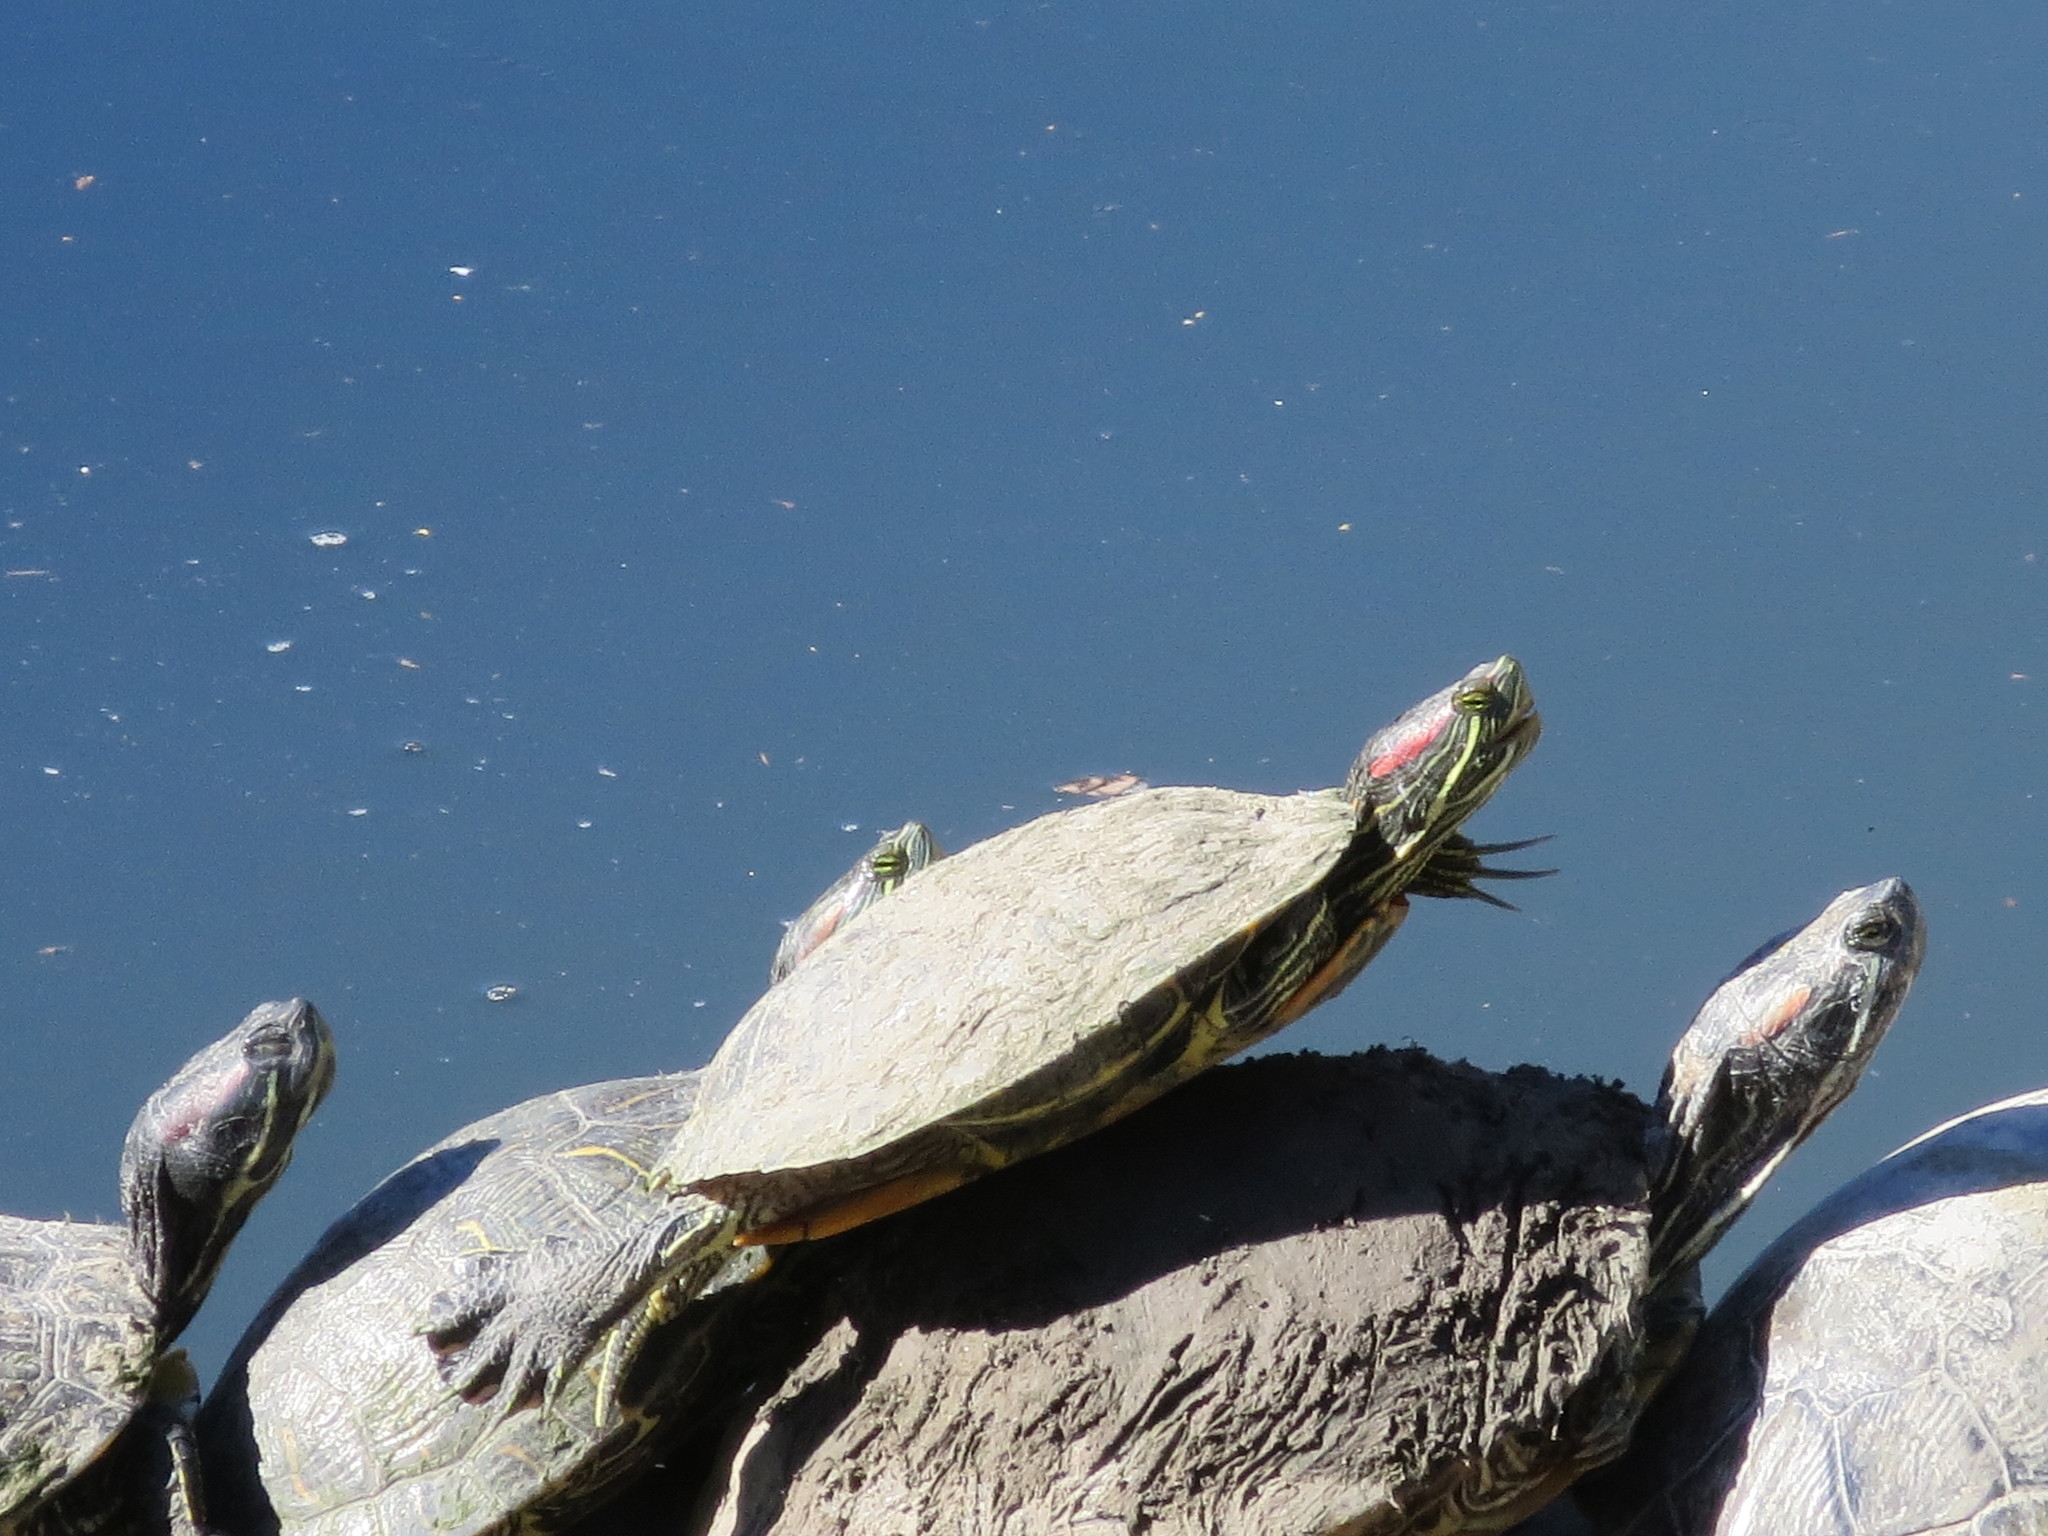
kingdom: Animalia
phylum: Chordata
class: Testudines
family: Emydidae
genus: Trachemys
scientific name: Trachemys scripta
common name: Slider
